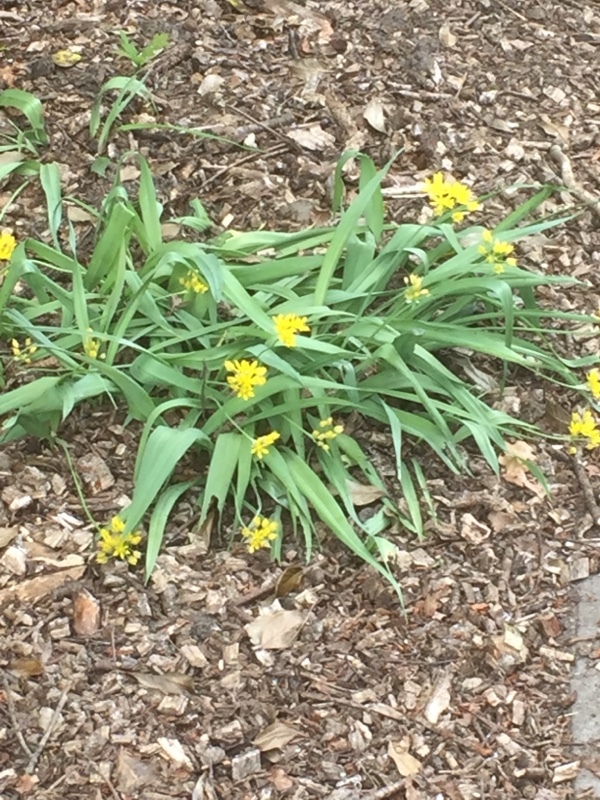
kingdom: Plantae
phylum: Tracheophyta
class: Liliopsida
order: Asparagales
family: Amaryllidaceae
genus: Allium
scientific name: Allium moly
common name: Yellow garlic
